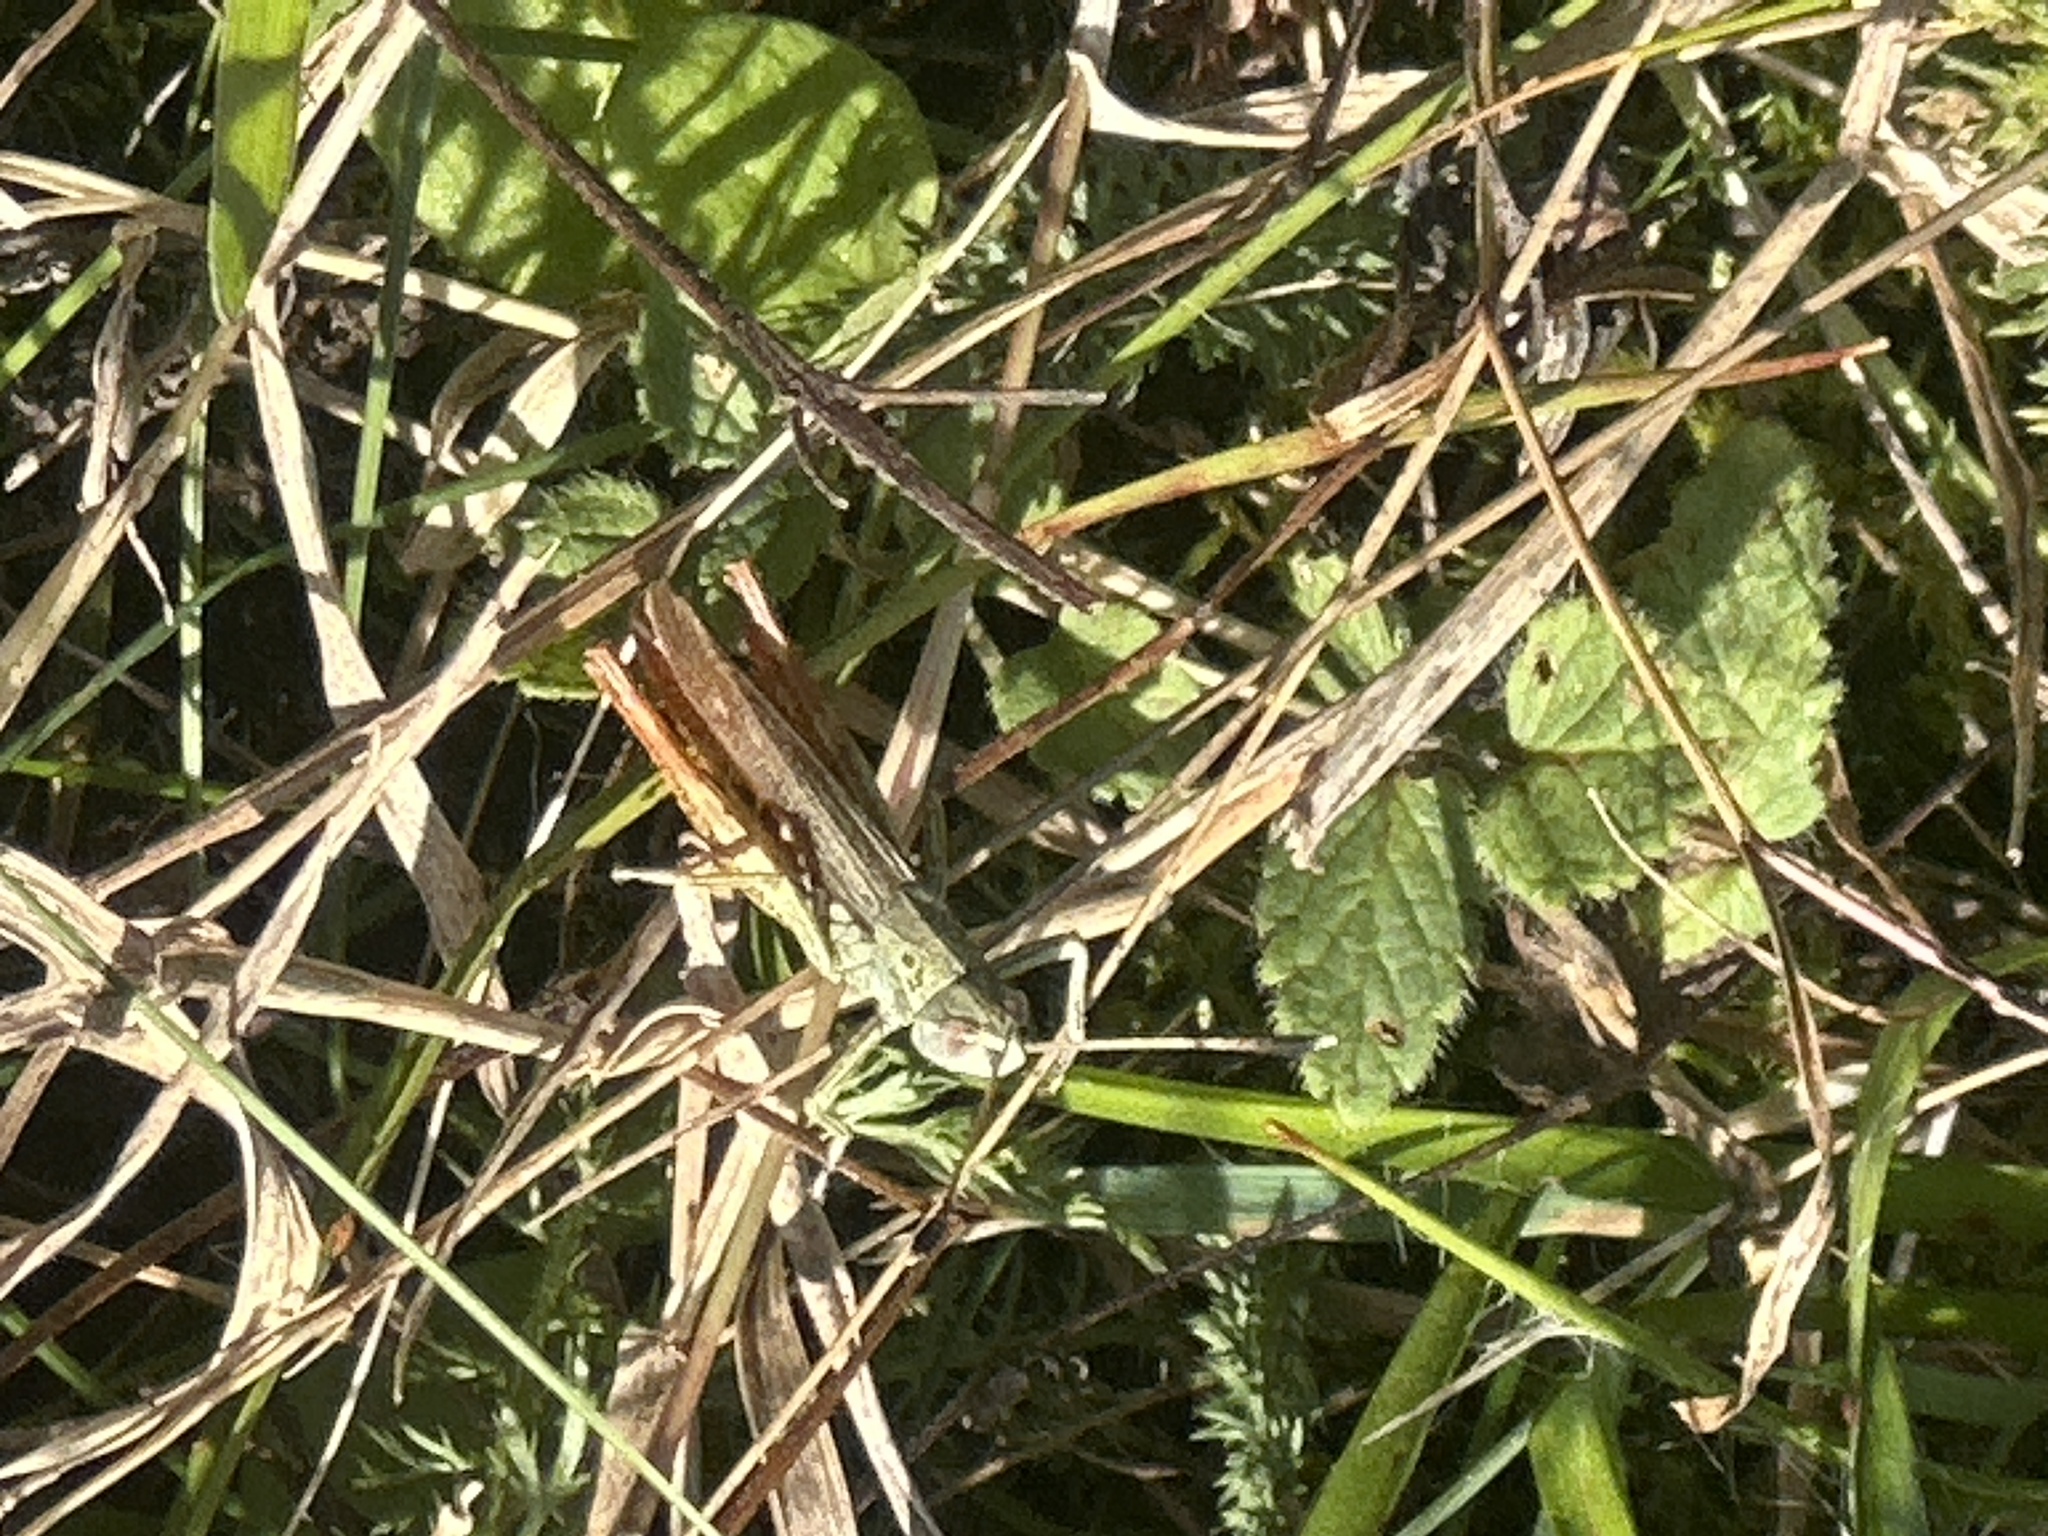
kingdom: Animalia
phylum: Arthropoda
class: Insecta
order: Orthoptera
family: Acrididae
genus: Gomphocerippus
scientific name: Gomphocerippus rufus
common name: Rufous grasshopper
